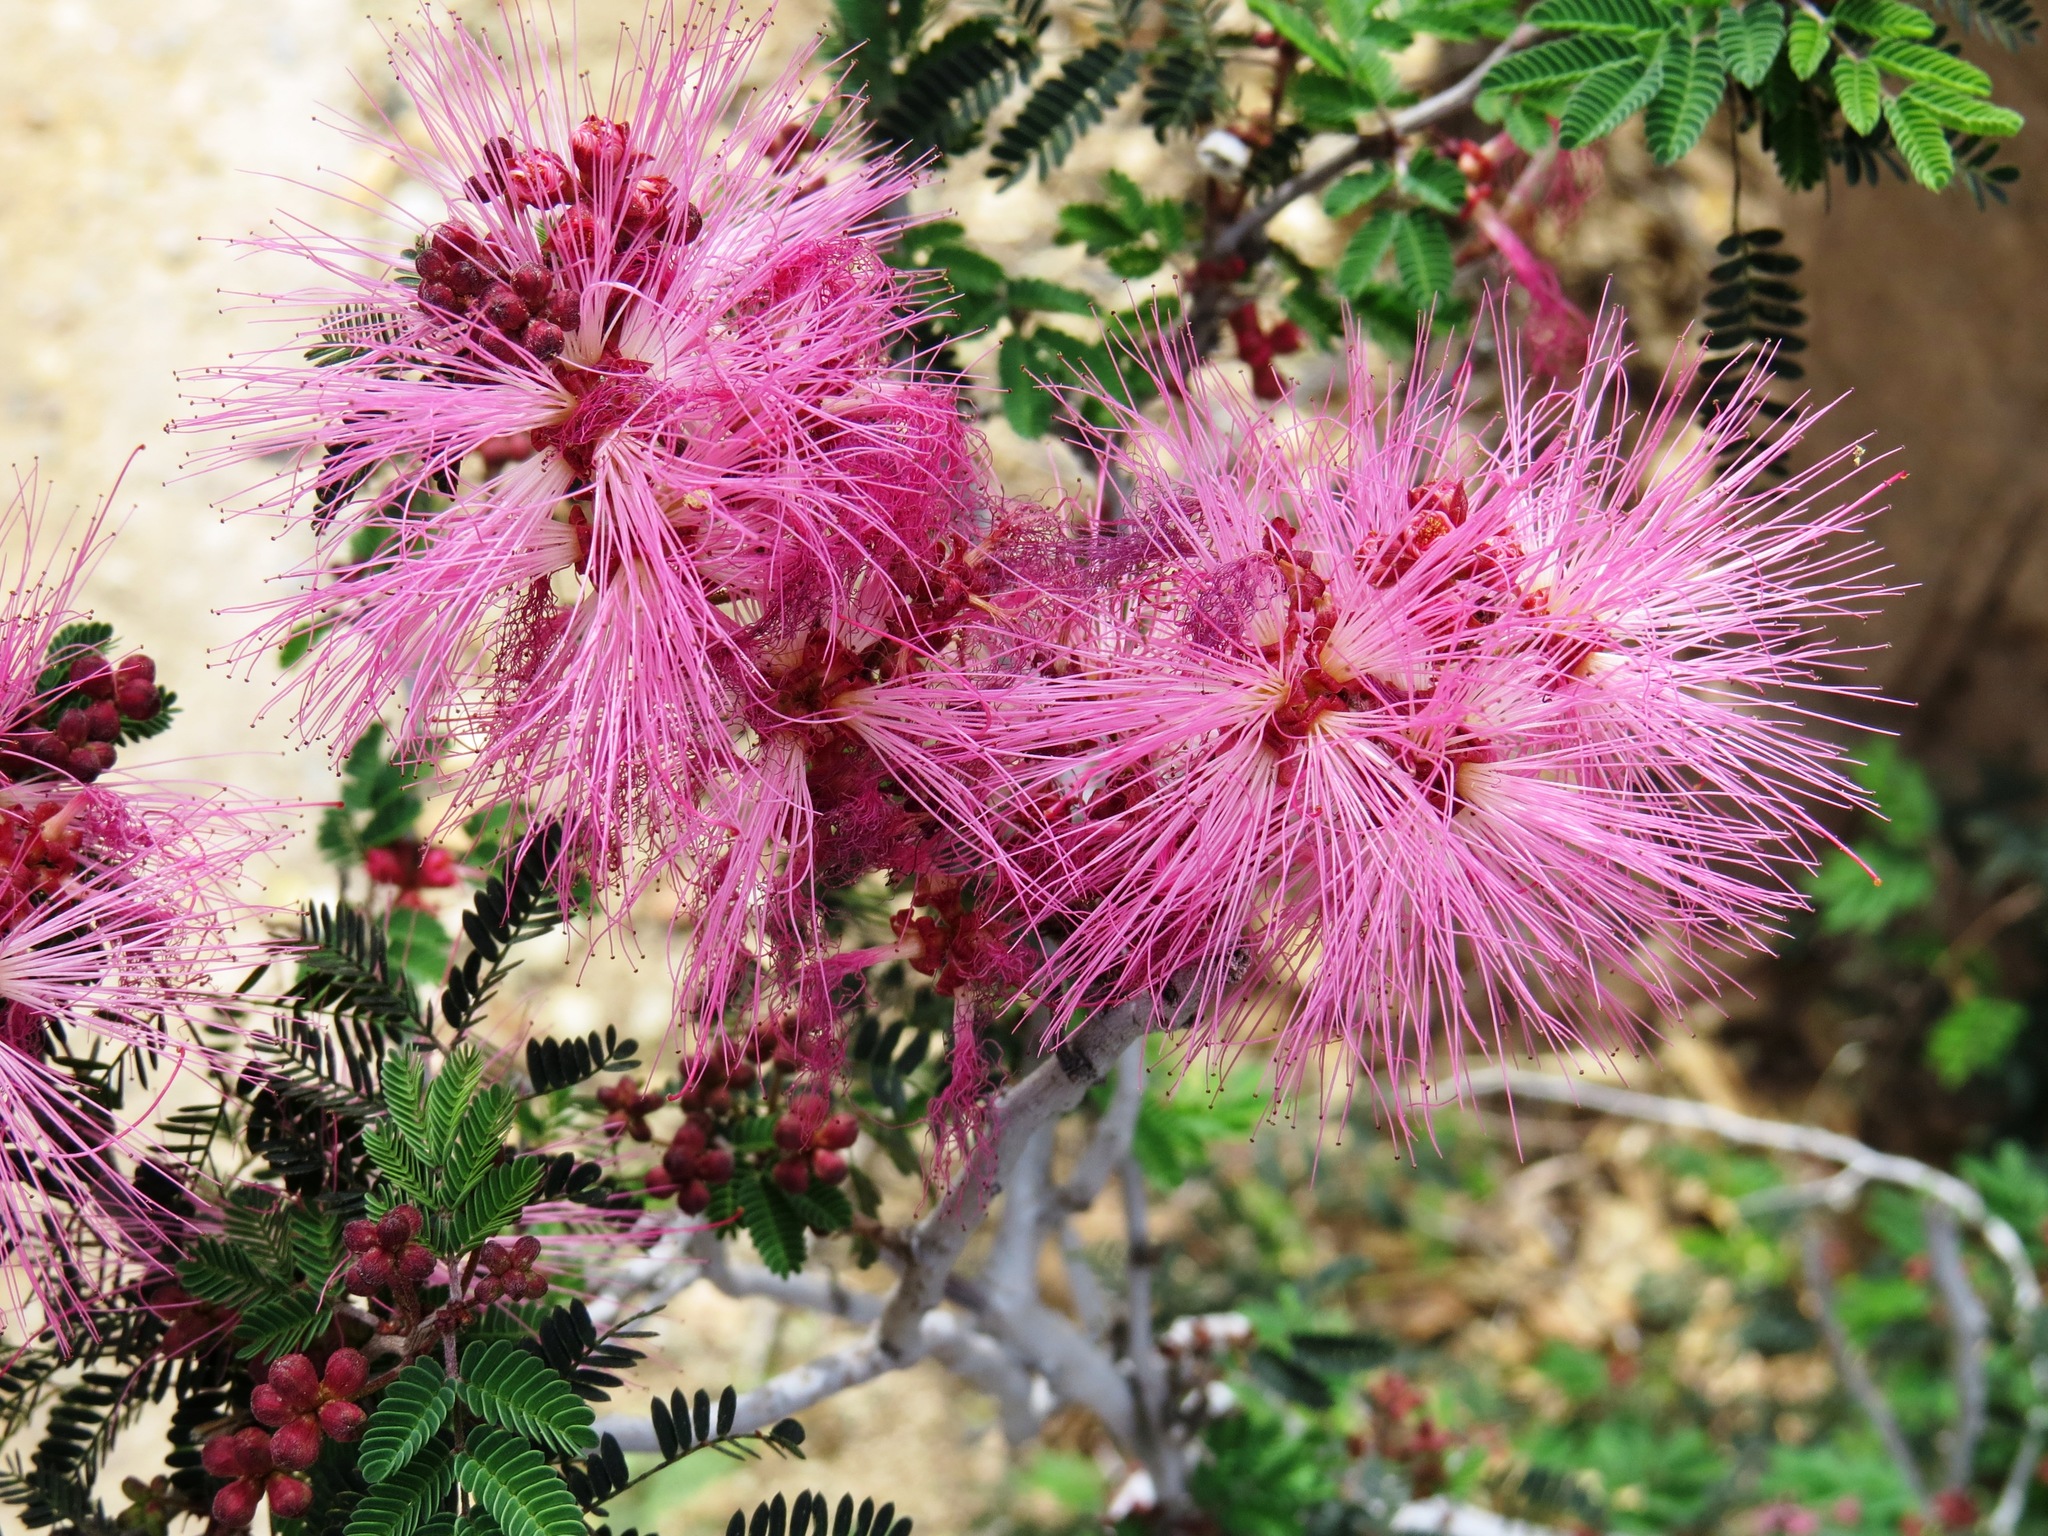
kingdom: Plantae
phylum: Tracheophyta
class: Magnoliopsida
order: Fabales
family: Fabaceae
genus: Calliandra
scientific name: Calliandra eriophylla
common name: Fairy-duster
